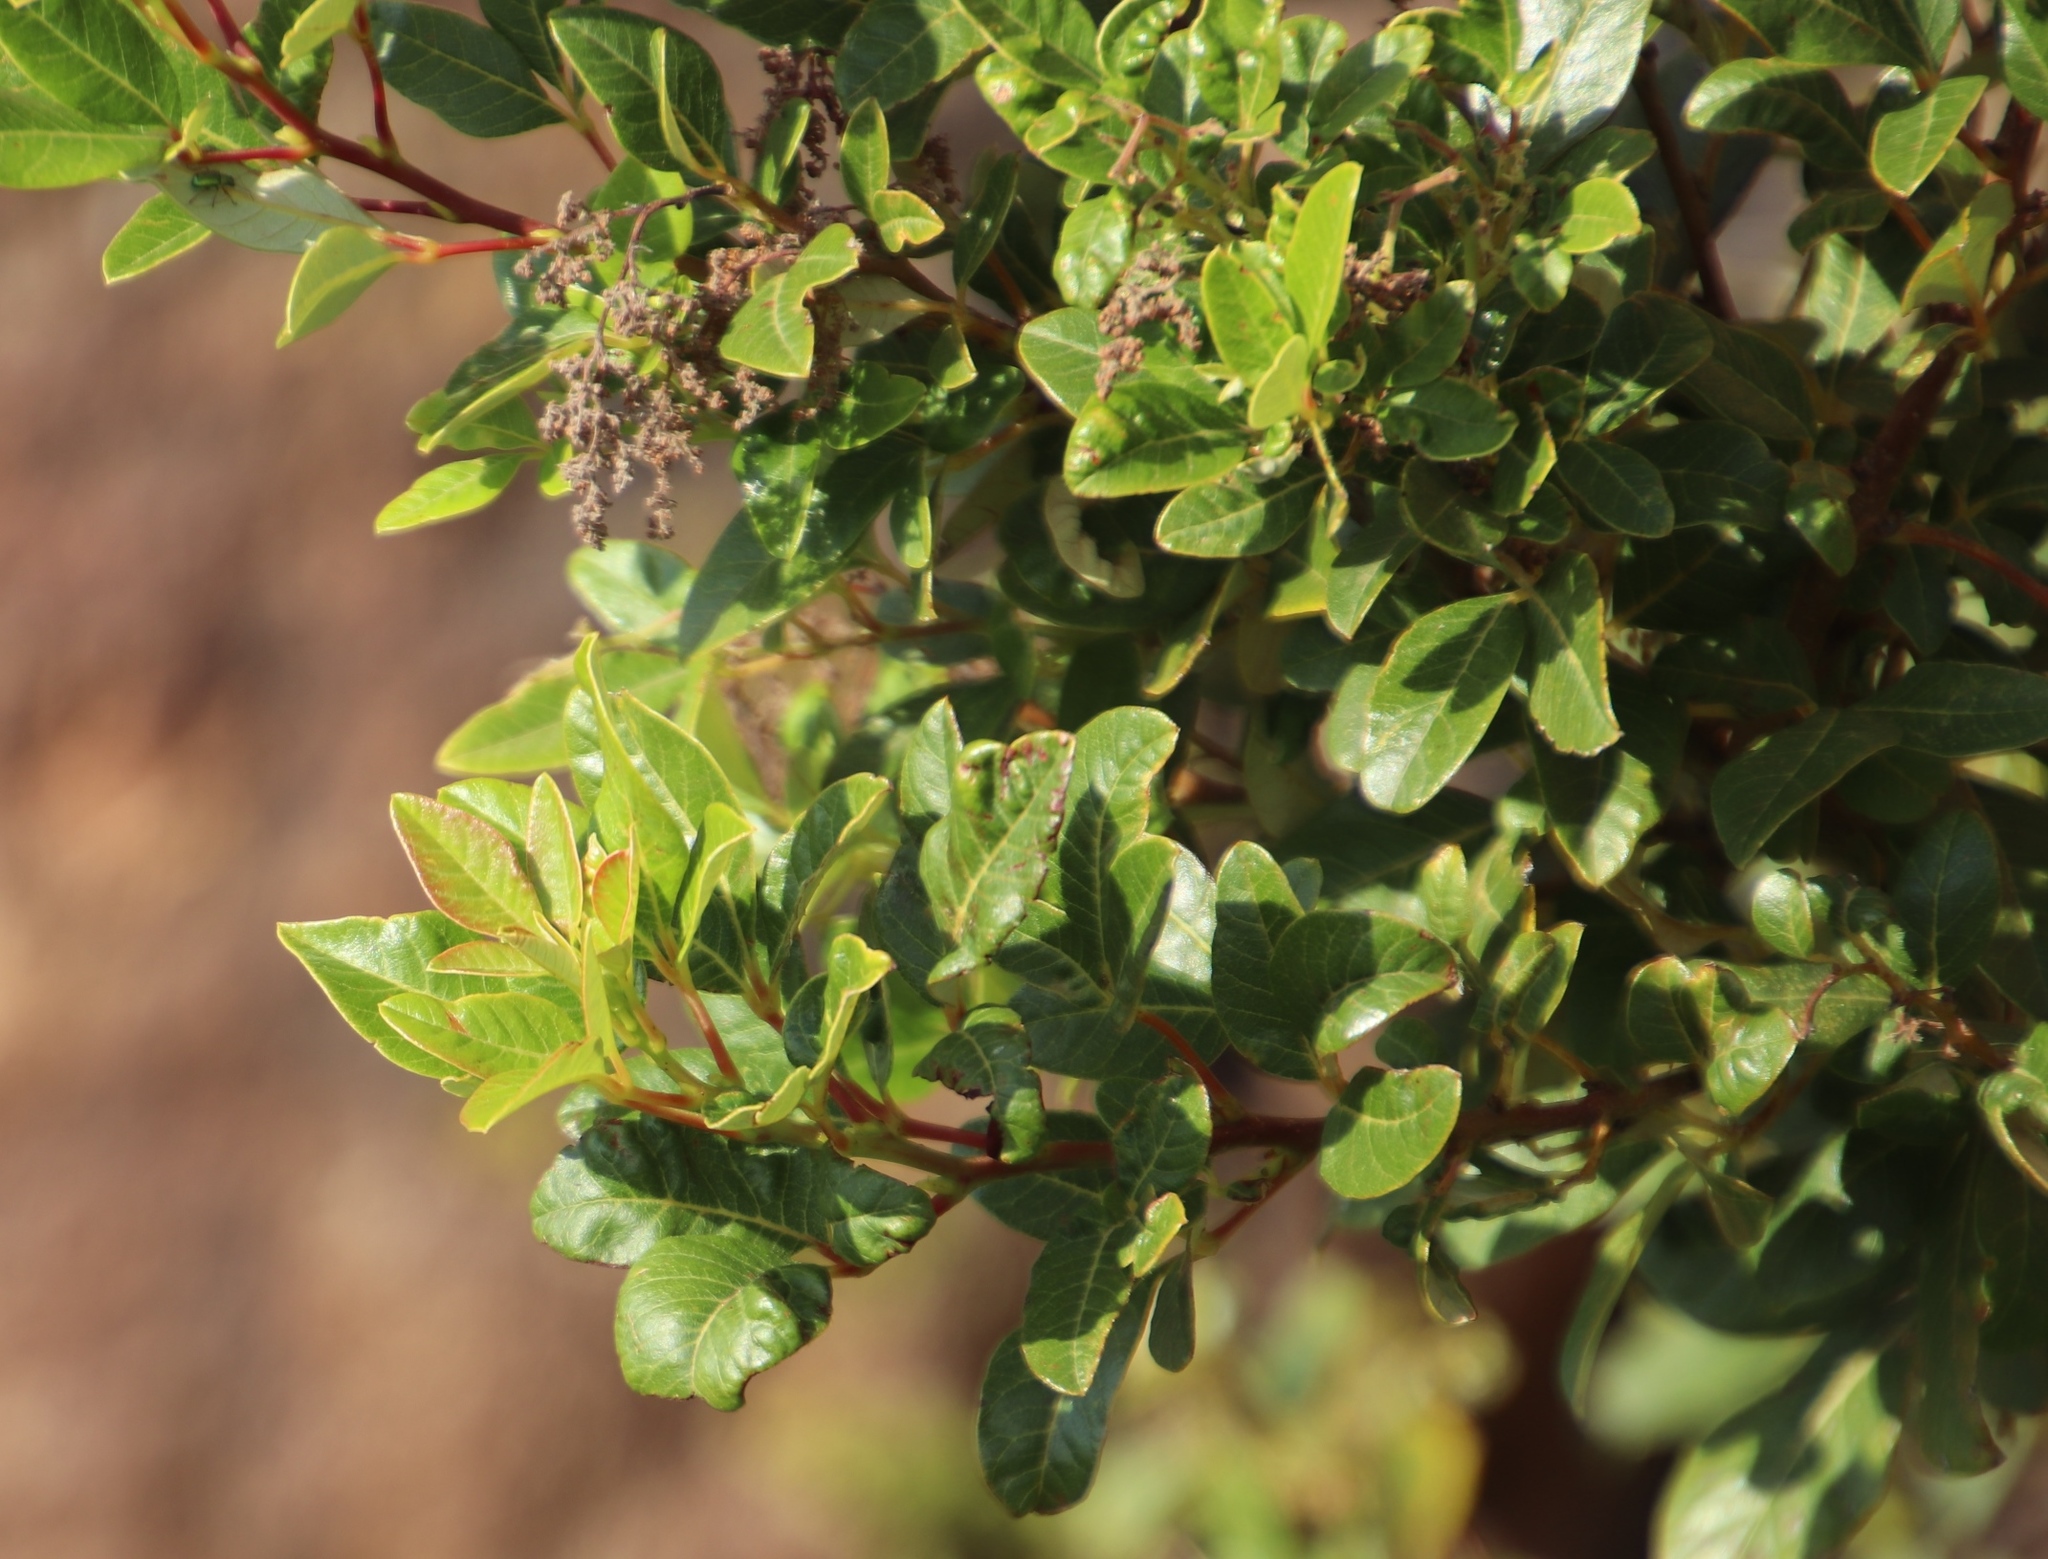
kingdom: Plantae
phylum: Tracheophyta
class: Magnoliopsida
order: Sapindales
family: Anacardiaceae
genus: Searsia
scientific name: Searsia tomentosa
